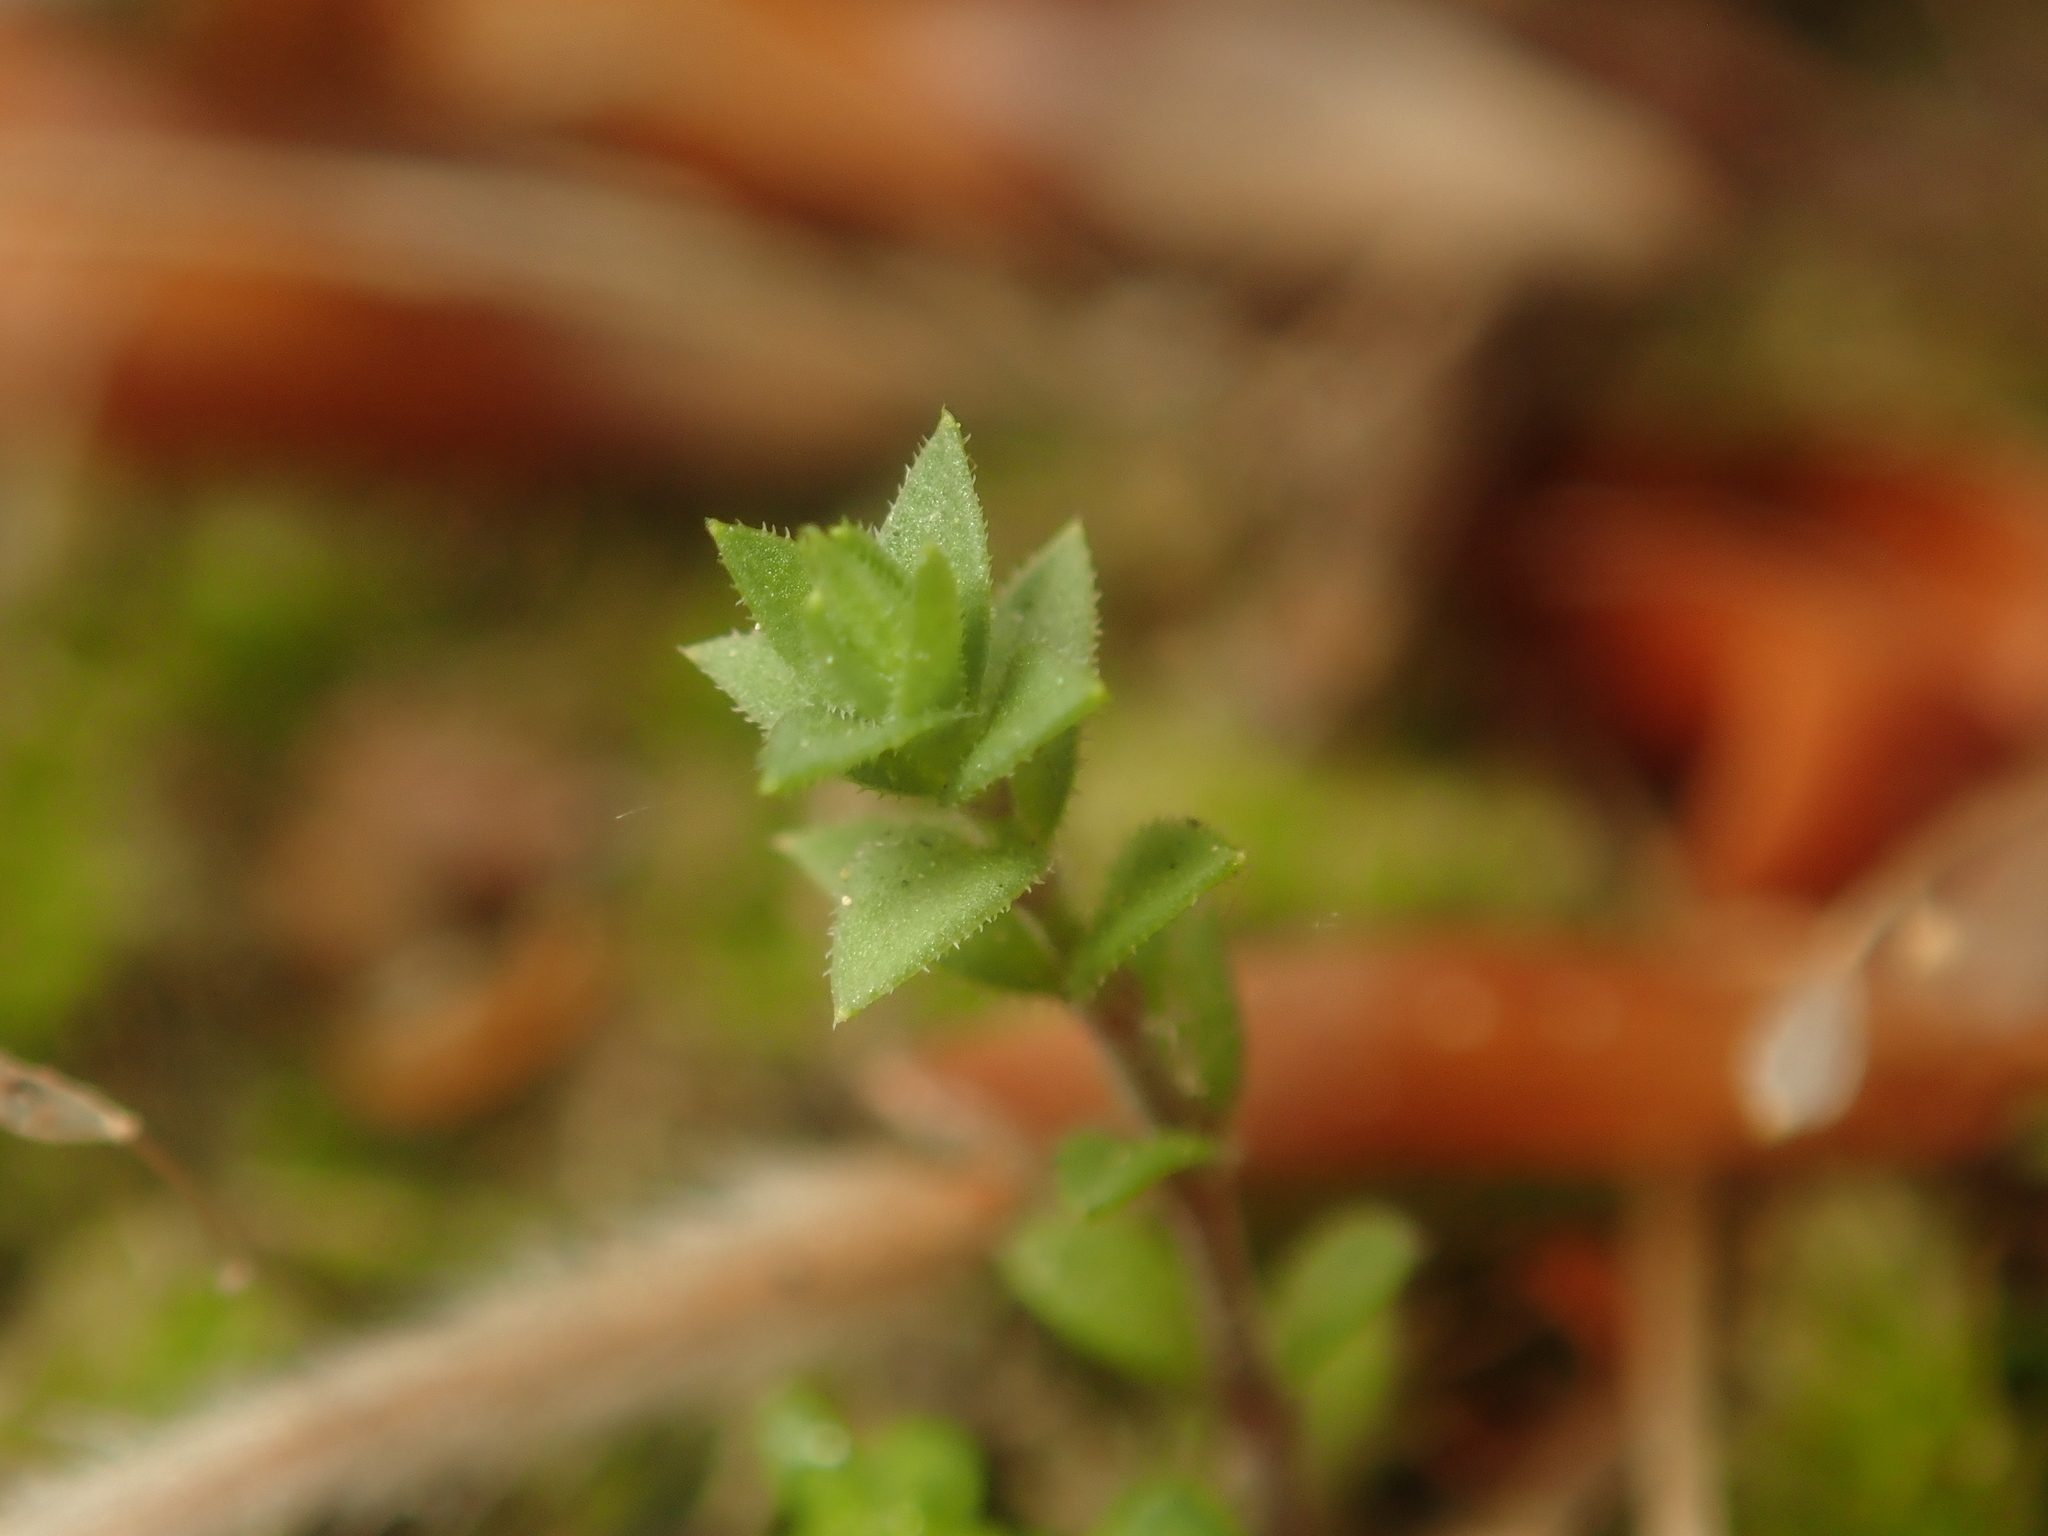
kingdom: Plantae
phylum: Tracheophyta
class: Magnoliopsida
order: Caryophyllales
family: Caryophyllaceae
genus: Arenaria
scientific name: Arenaria serpyllifolia
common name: Thyme-leaved sandwort
